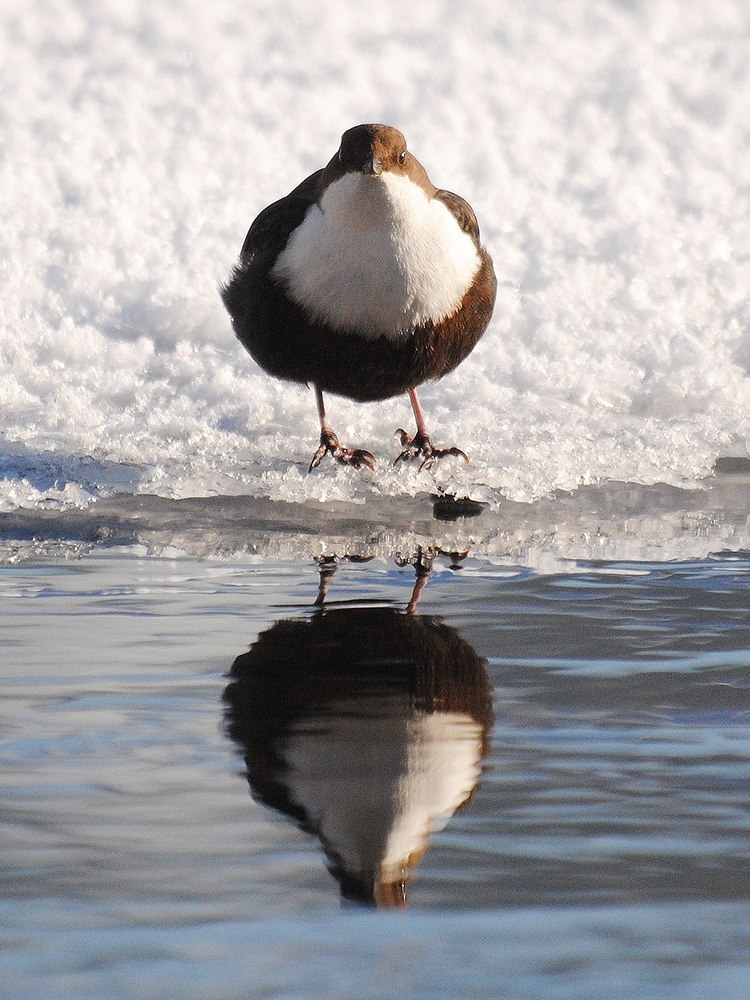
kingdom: Animalia
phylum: Chordata
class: Aves
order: Passeriformes
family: Cinclidae
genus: Cinclus
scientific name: Cinclus cinclus
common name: White-throated dipper
